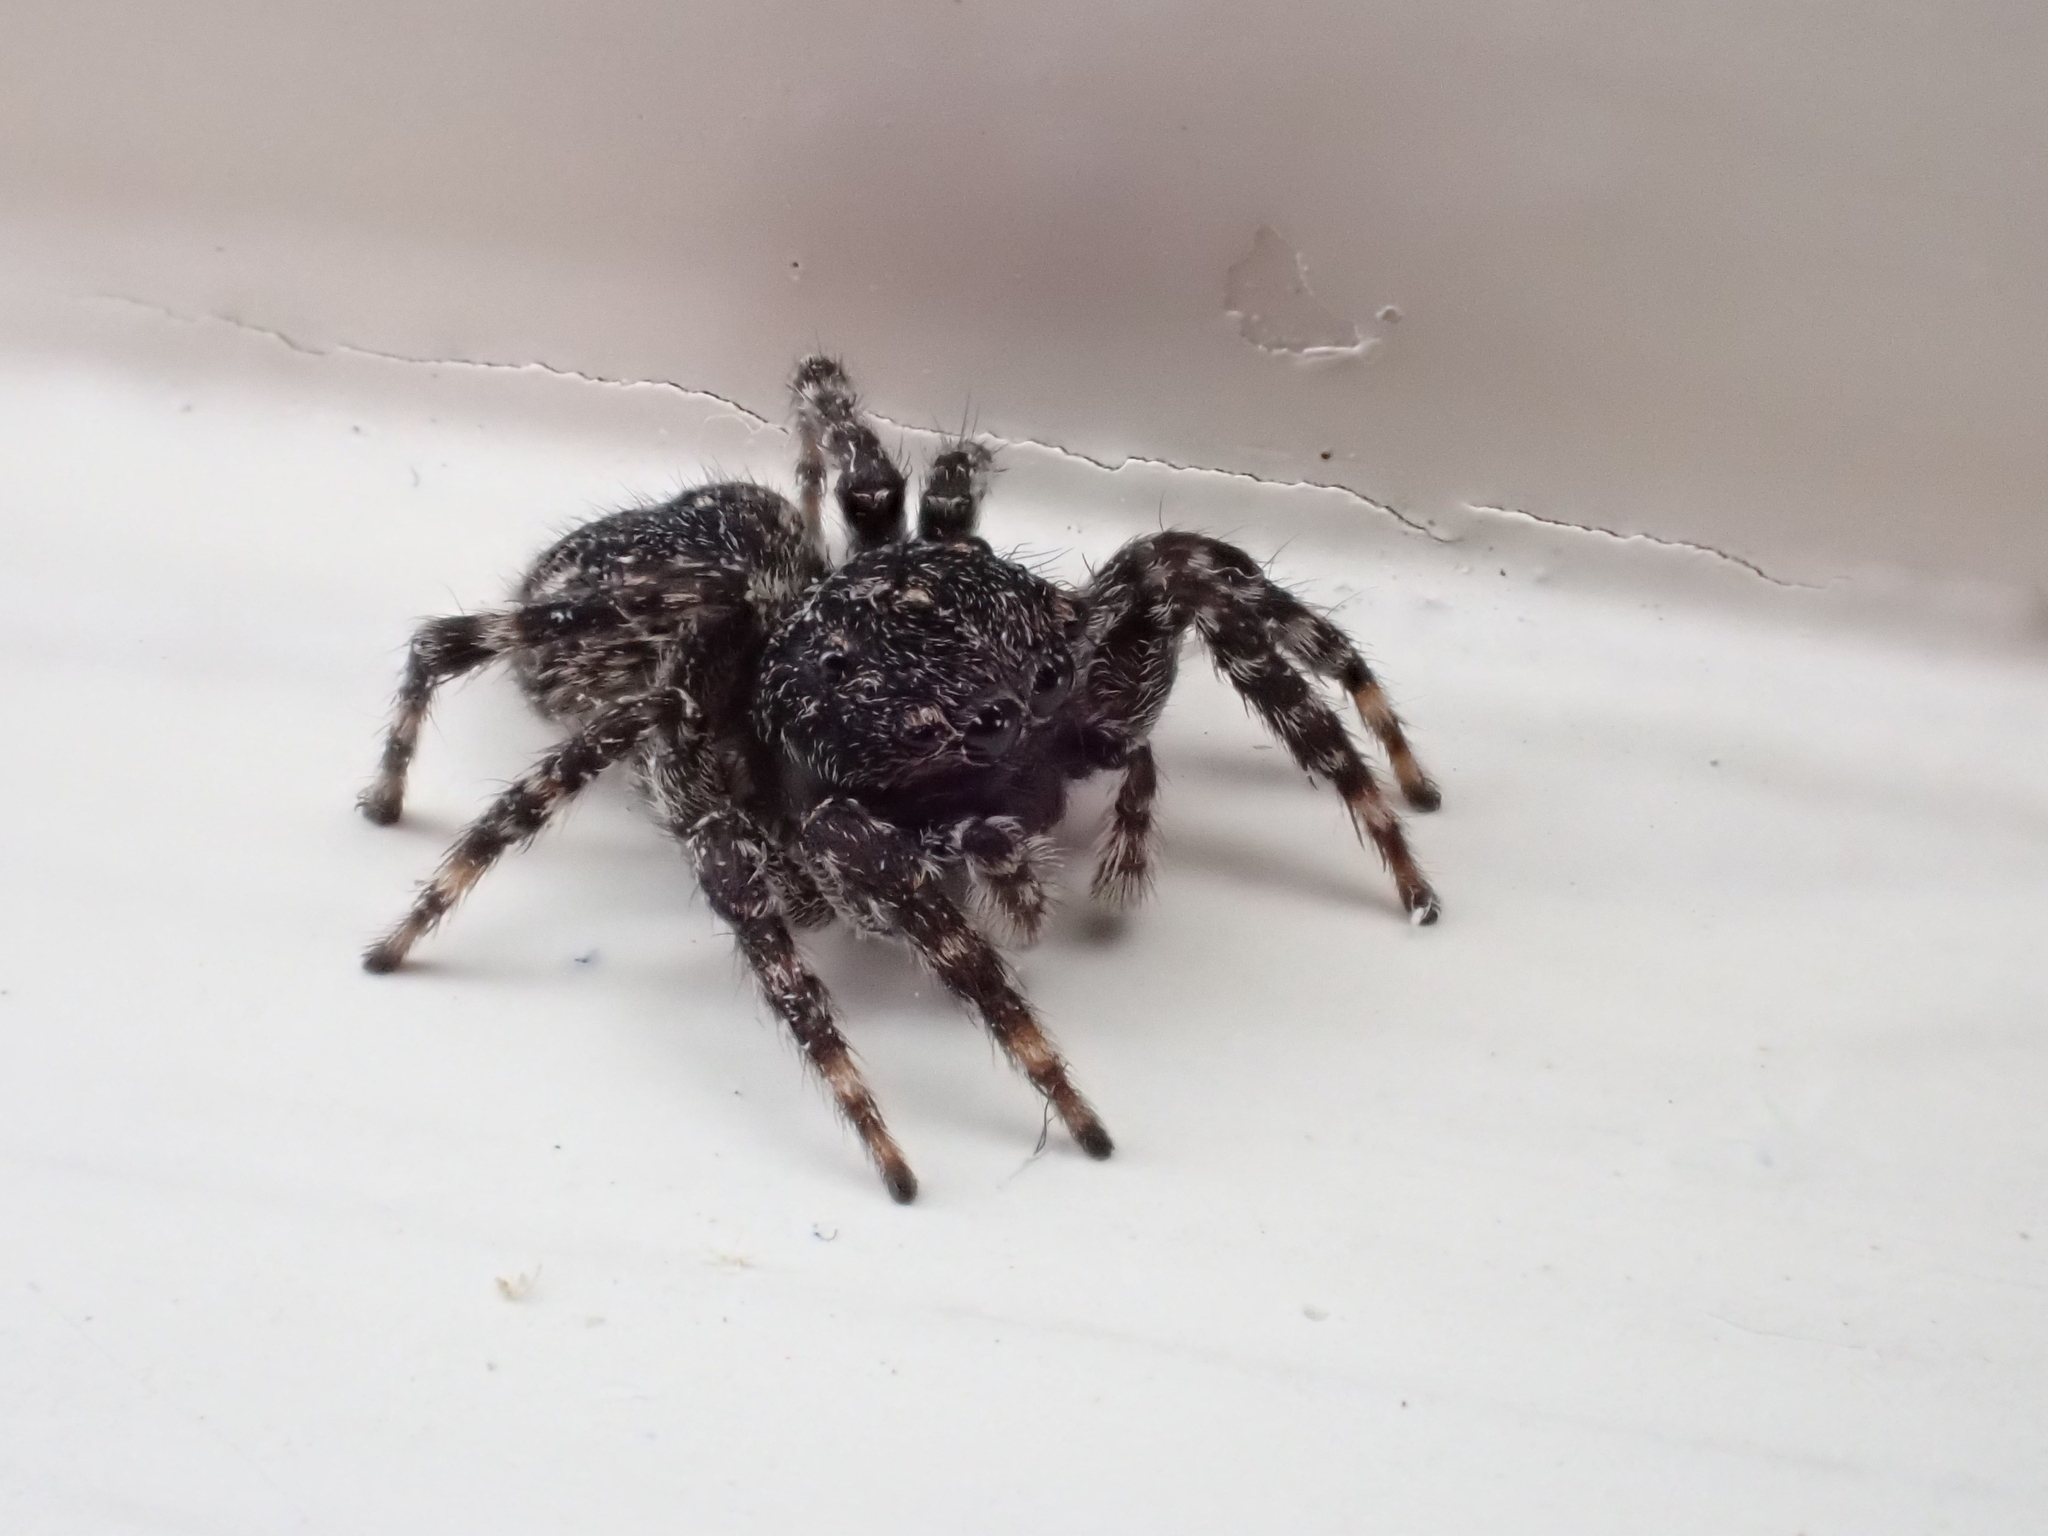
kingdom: Animalia
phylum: Arthropoda
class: Arachnida
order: Araneae
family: Salticidae
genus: Attulus
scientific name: Attulus pubescens
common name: Jumping spider
